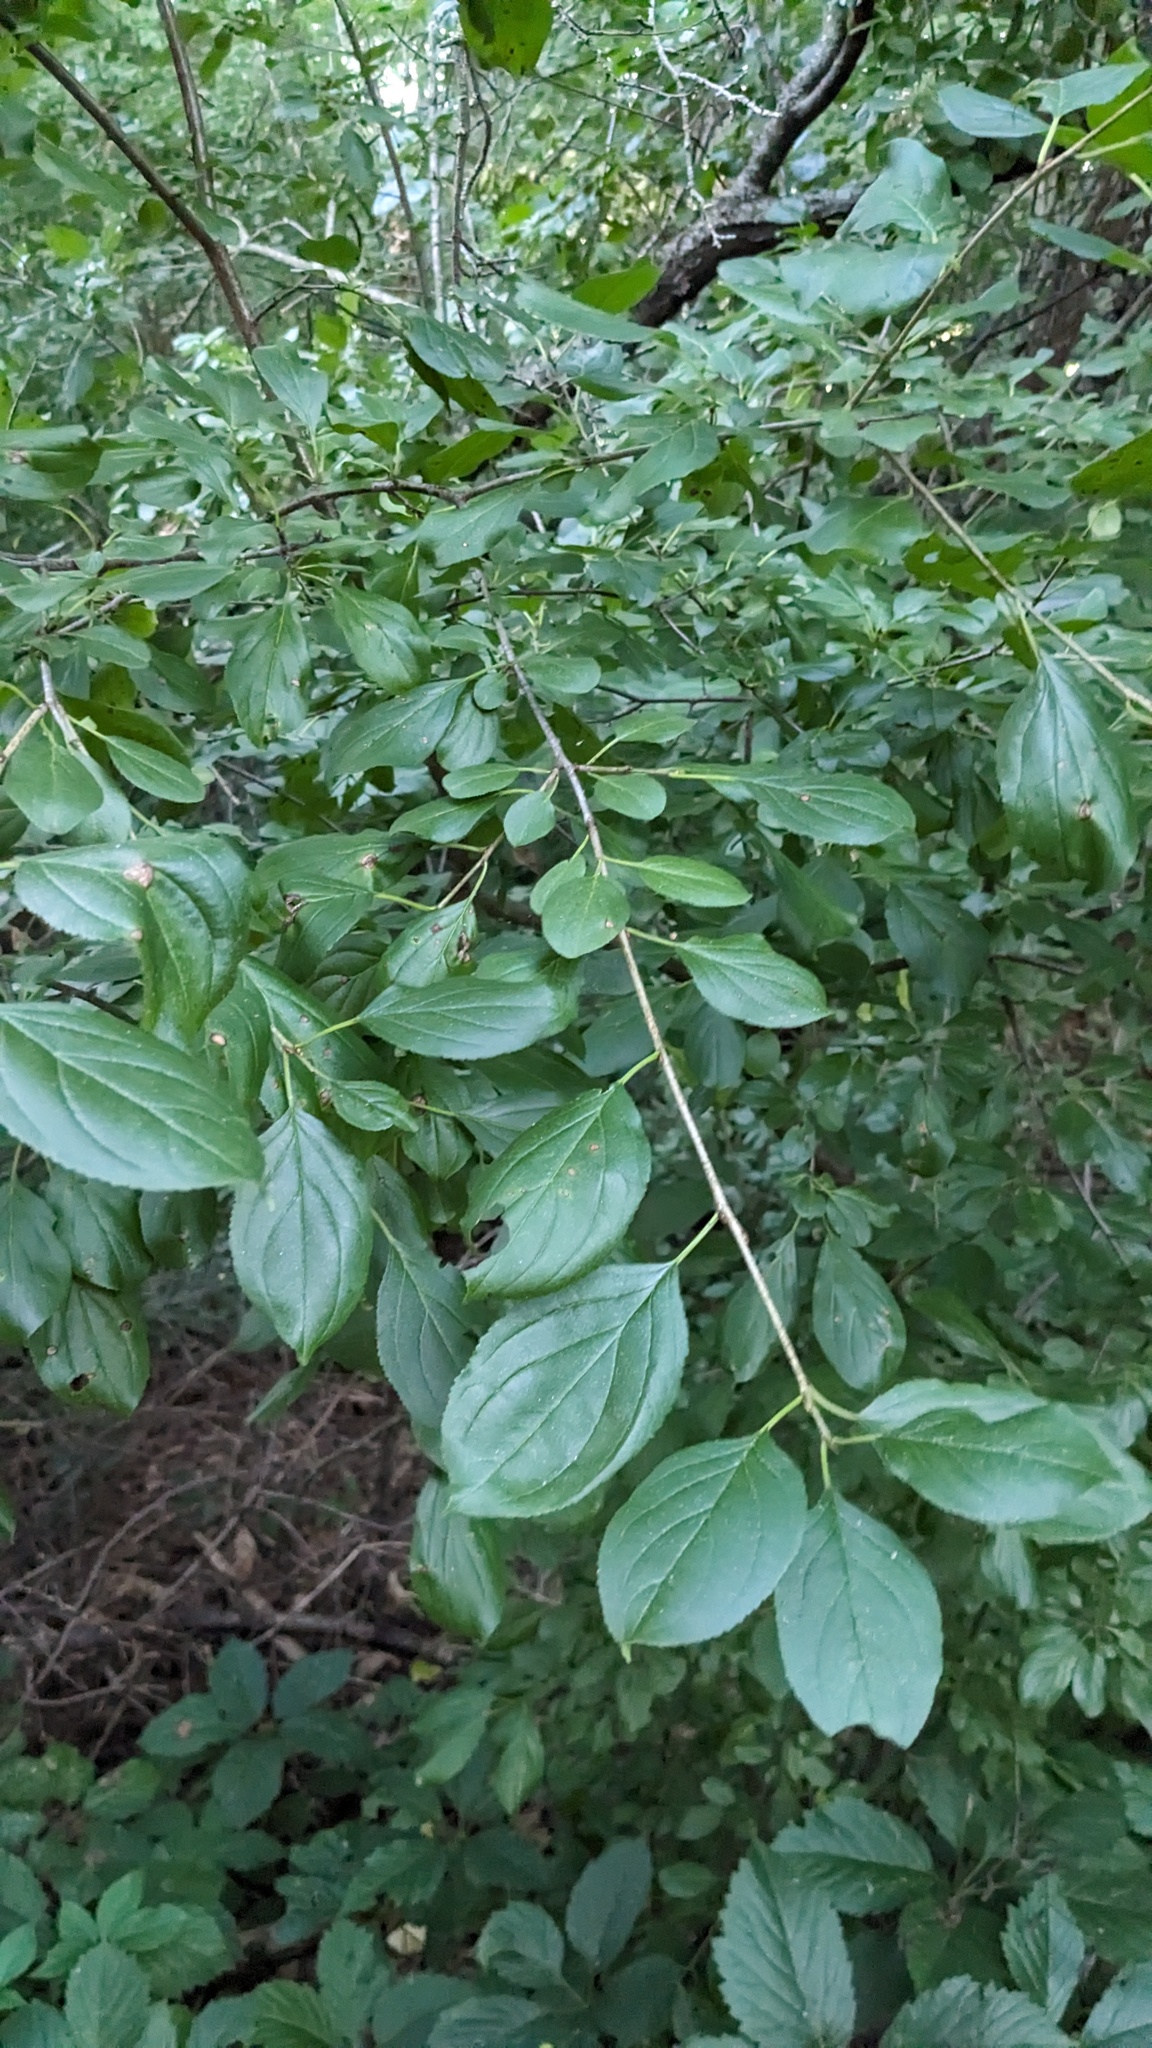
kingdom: Plantae
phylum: Tracheophyta
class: Magnoliopsida
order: Rosales
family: Rhamnaceae
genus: Rhamnus
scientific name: Rhamnus cathartica
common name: Common buckthorn
